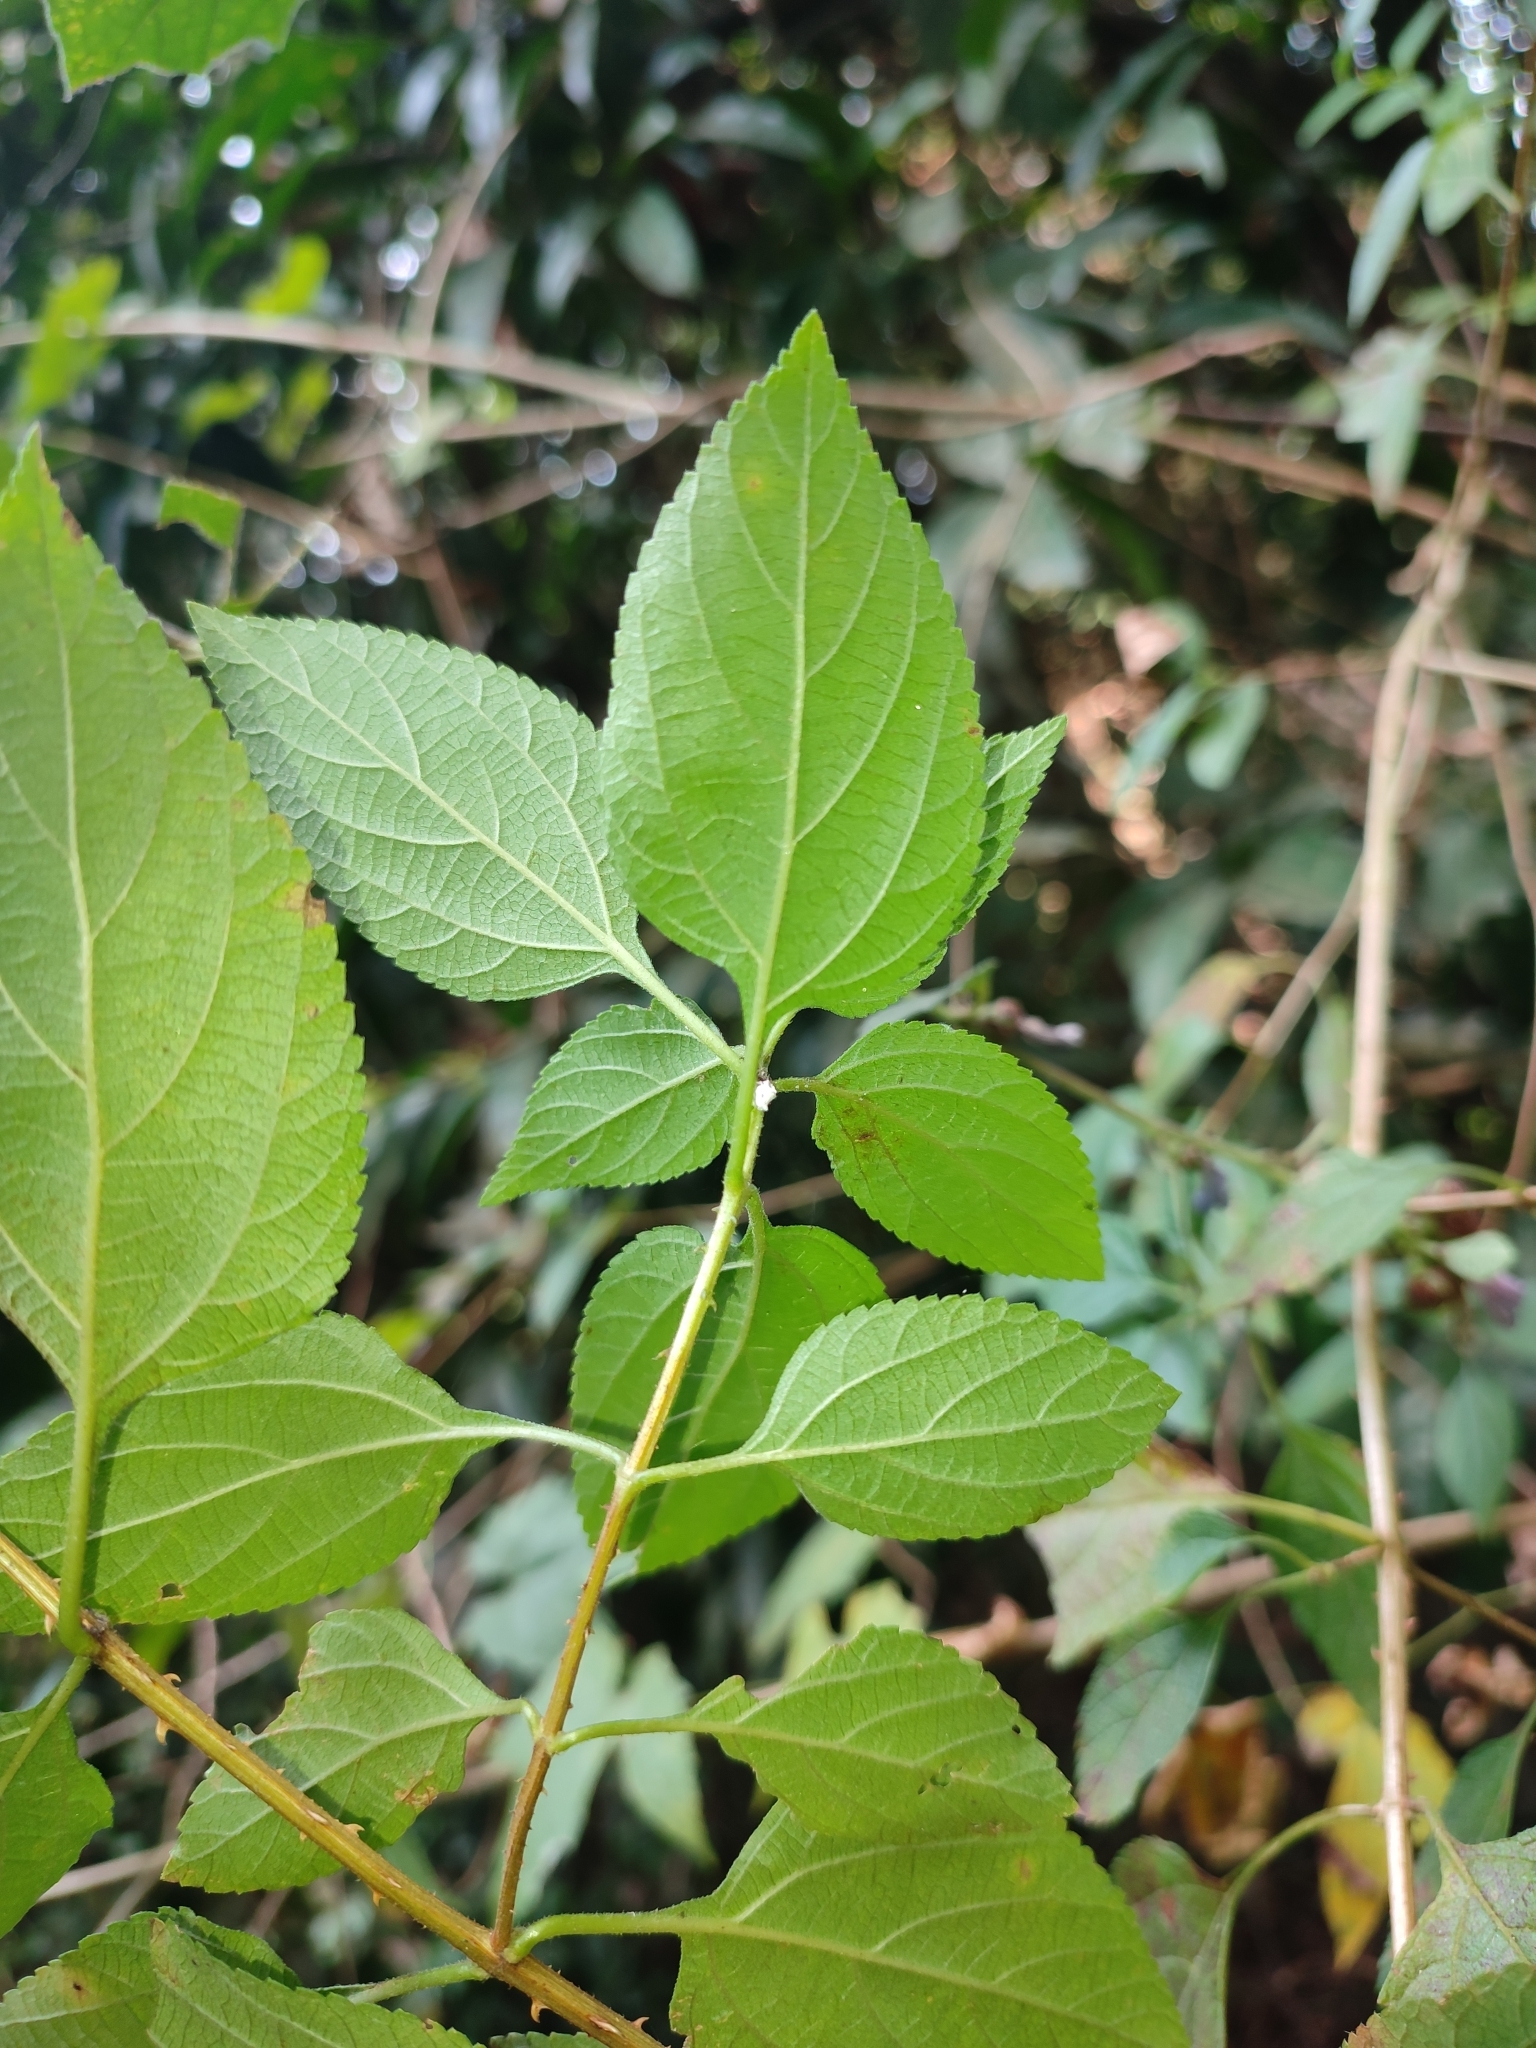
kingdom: Plantae
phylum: Tracheophyta
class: Magnoliopsida
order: Lamiales
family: Verbenaceae
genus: Lantana
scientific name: Lantana camara
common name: Lantana
